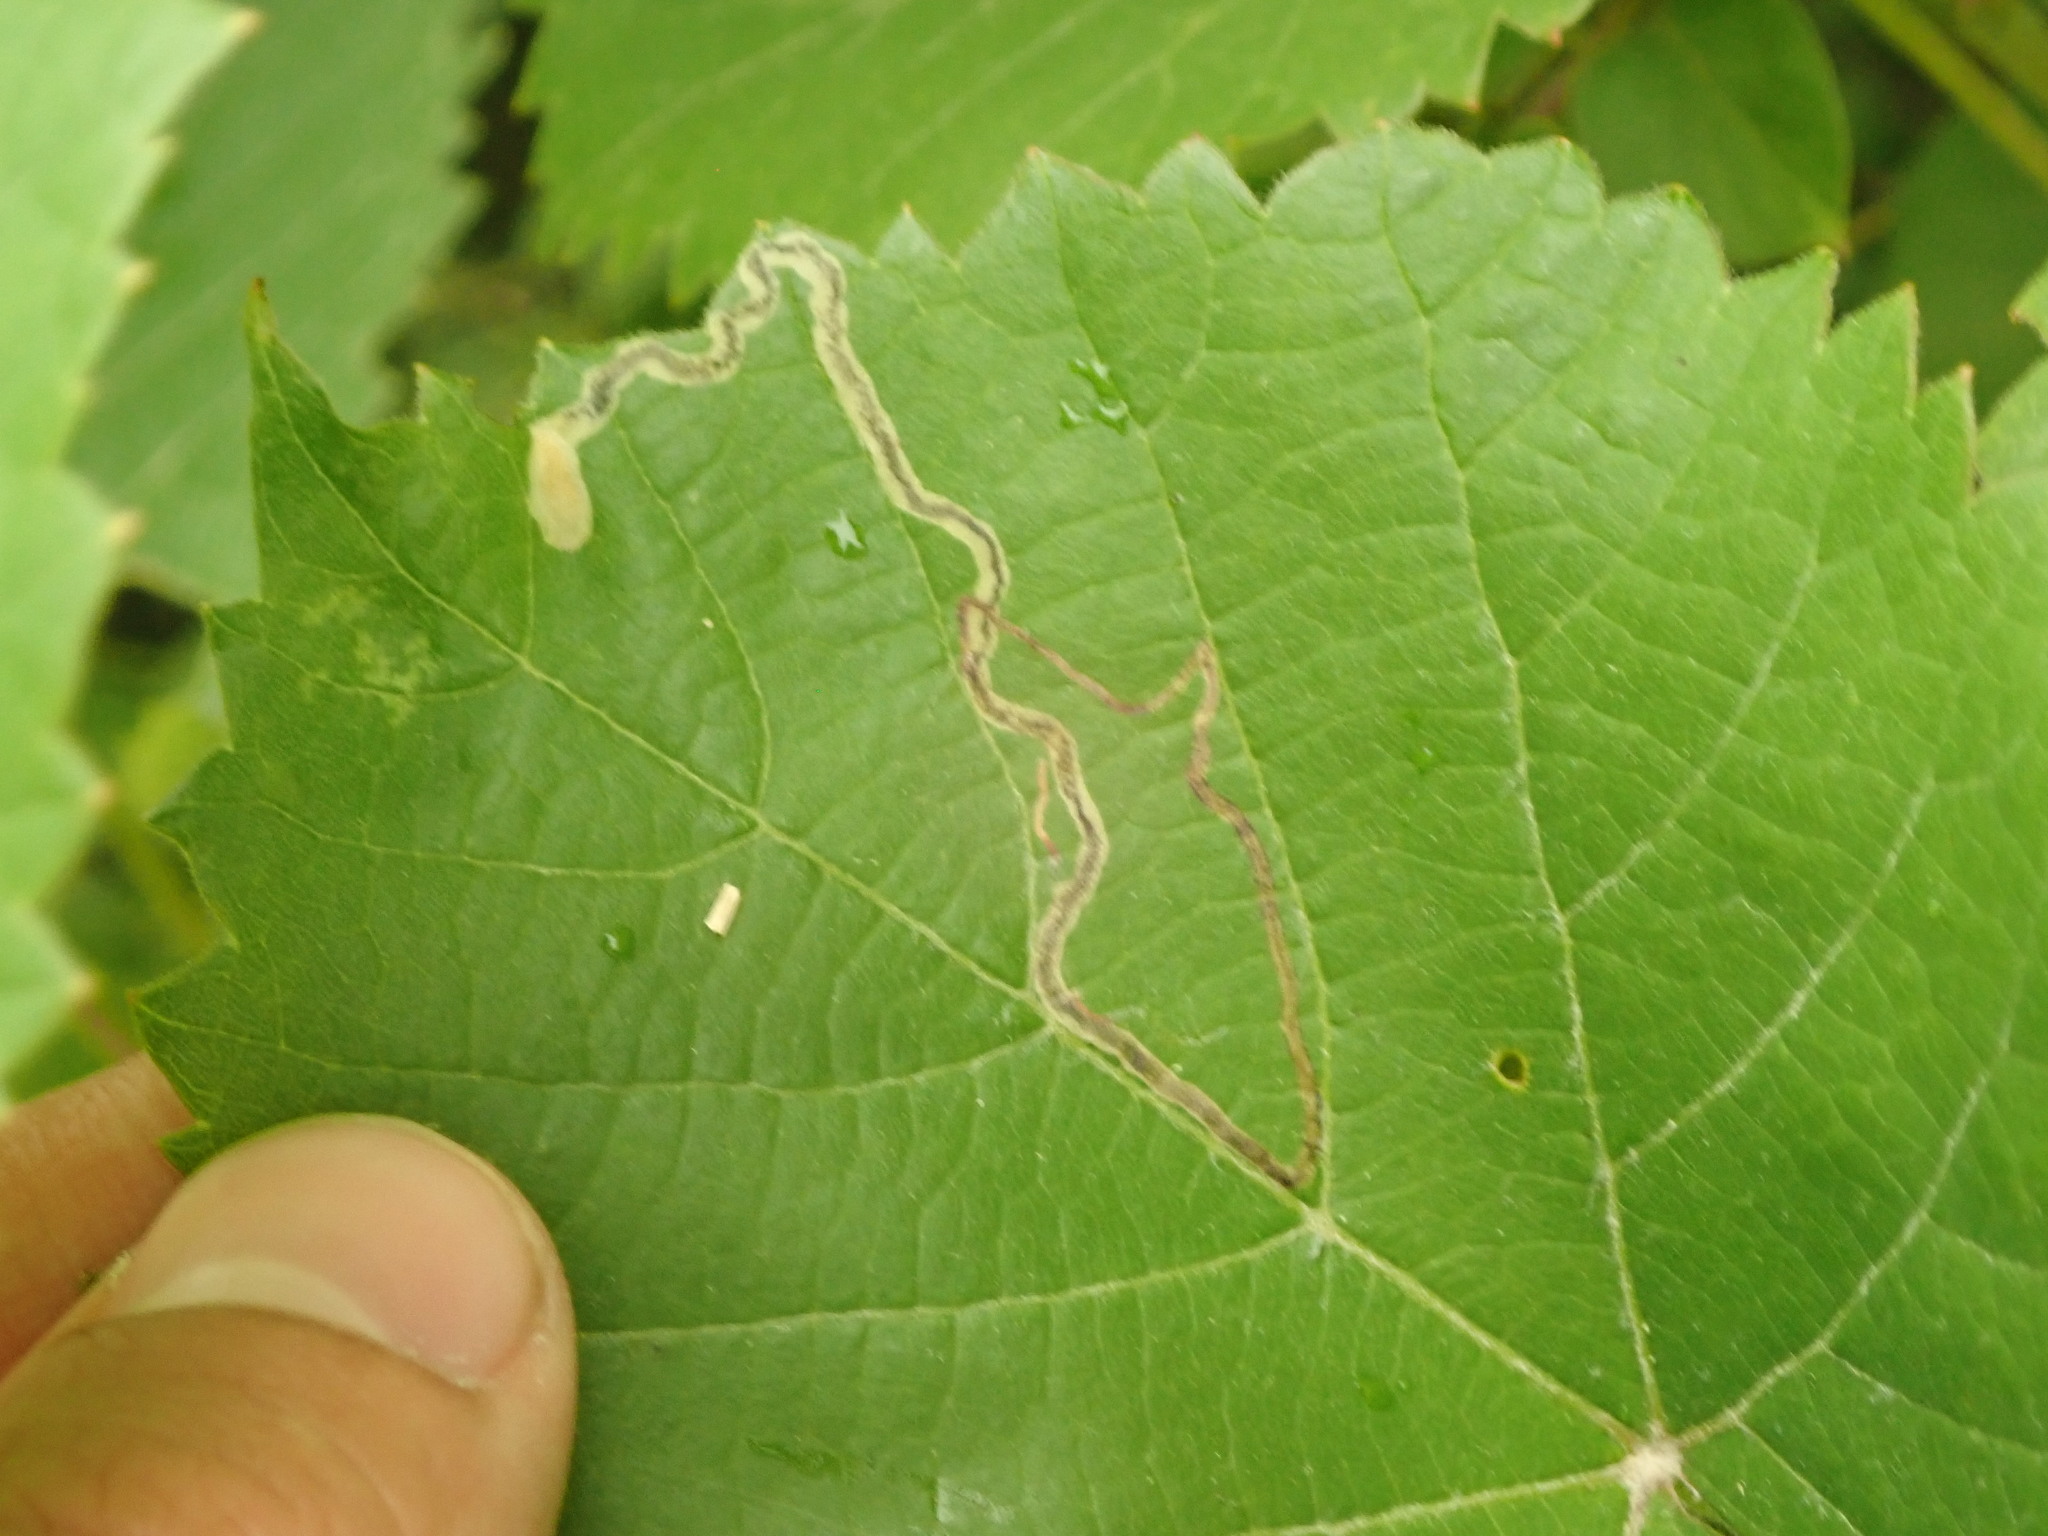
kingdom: Animalia
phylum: Arthropoda
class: Insecta
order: Lepidoptera
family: Gracillariidae
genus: Phyllocnistis
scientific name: Phyllocnistis vitifoliella
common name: Grape leaf-miner moth
